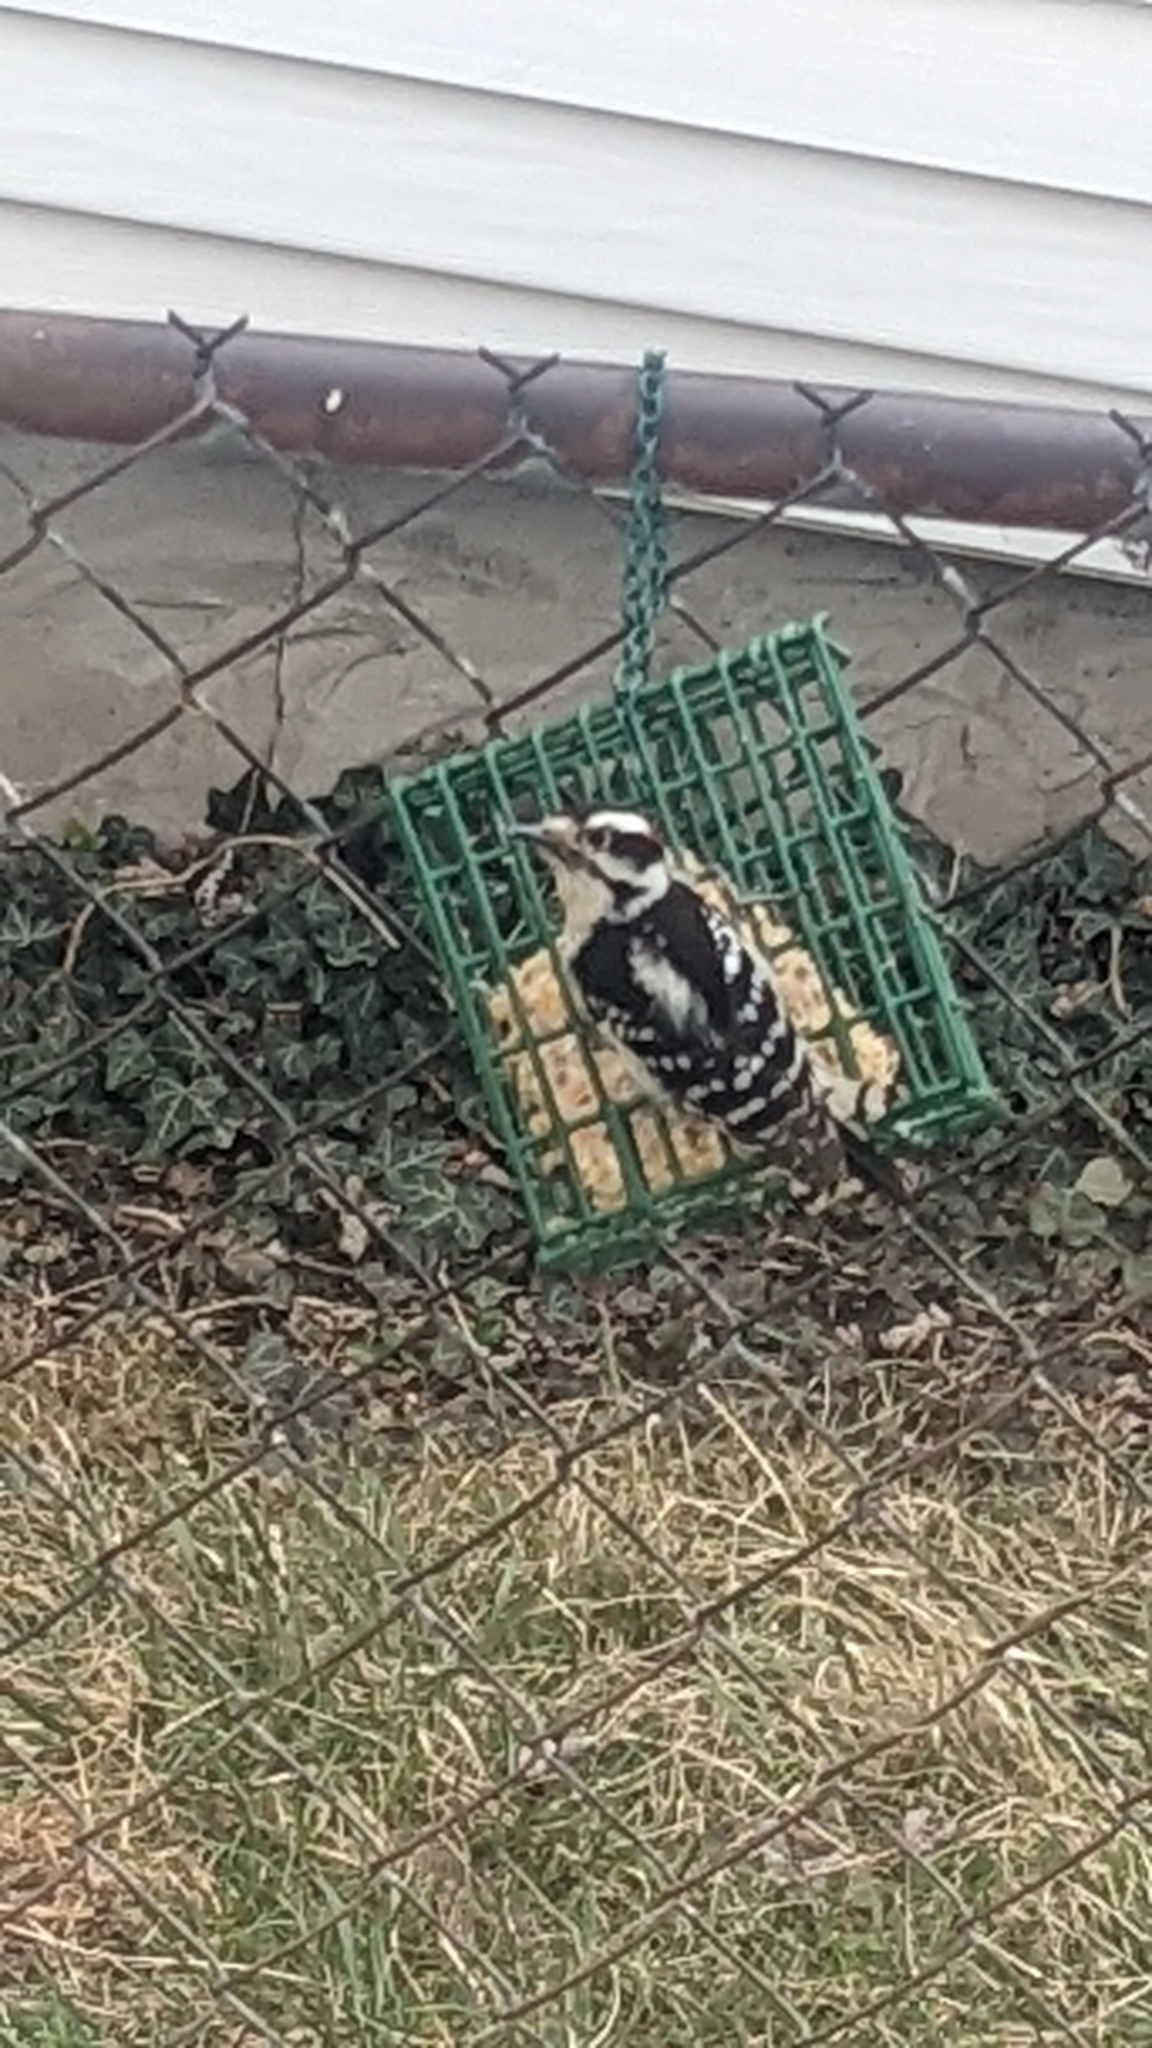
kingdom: Animalia
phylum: Chordata
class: Aves
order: Piciformes
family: Picidae
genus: Dryobates
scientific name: Dryobates pubescens
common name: Downy woodpecker
